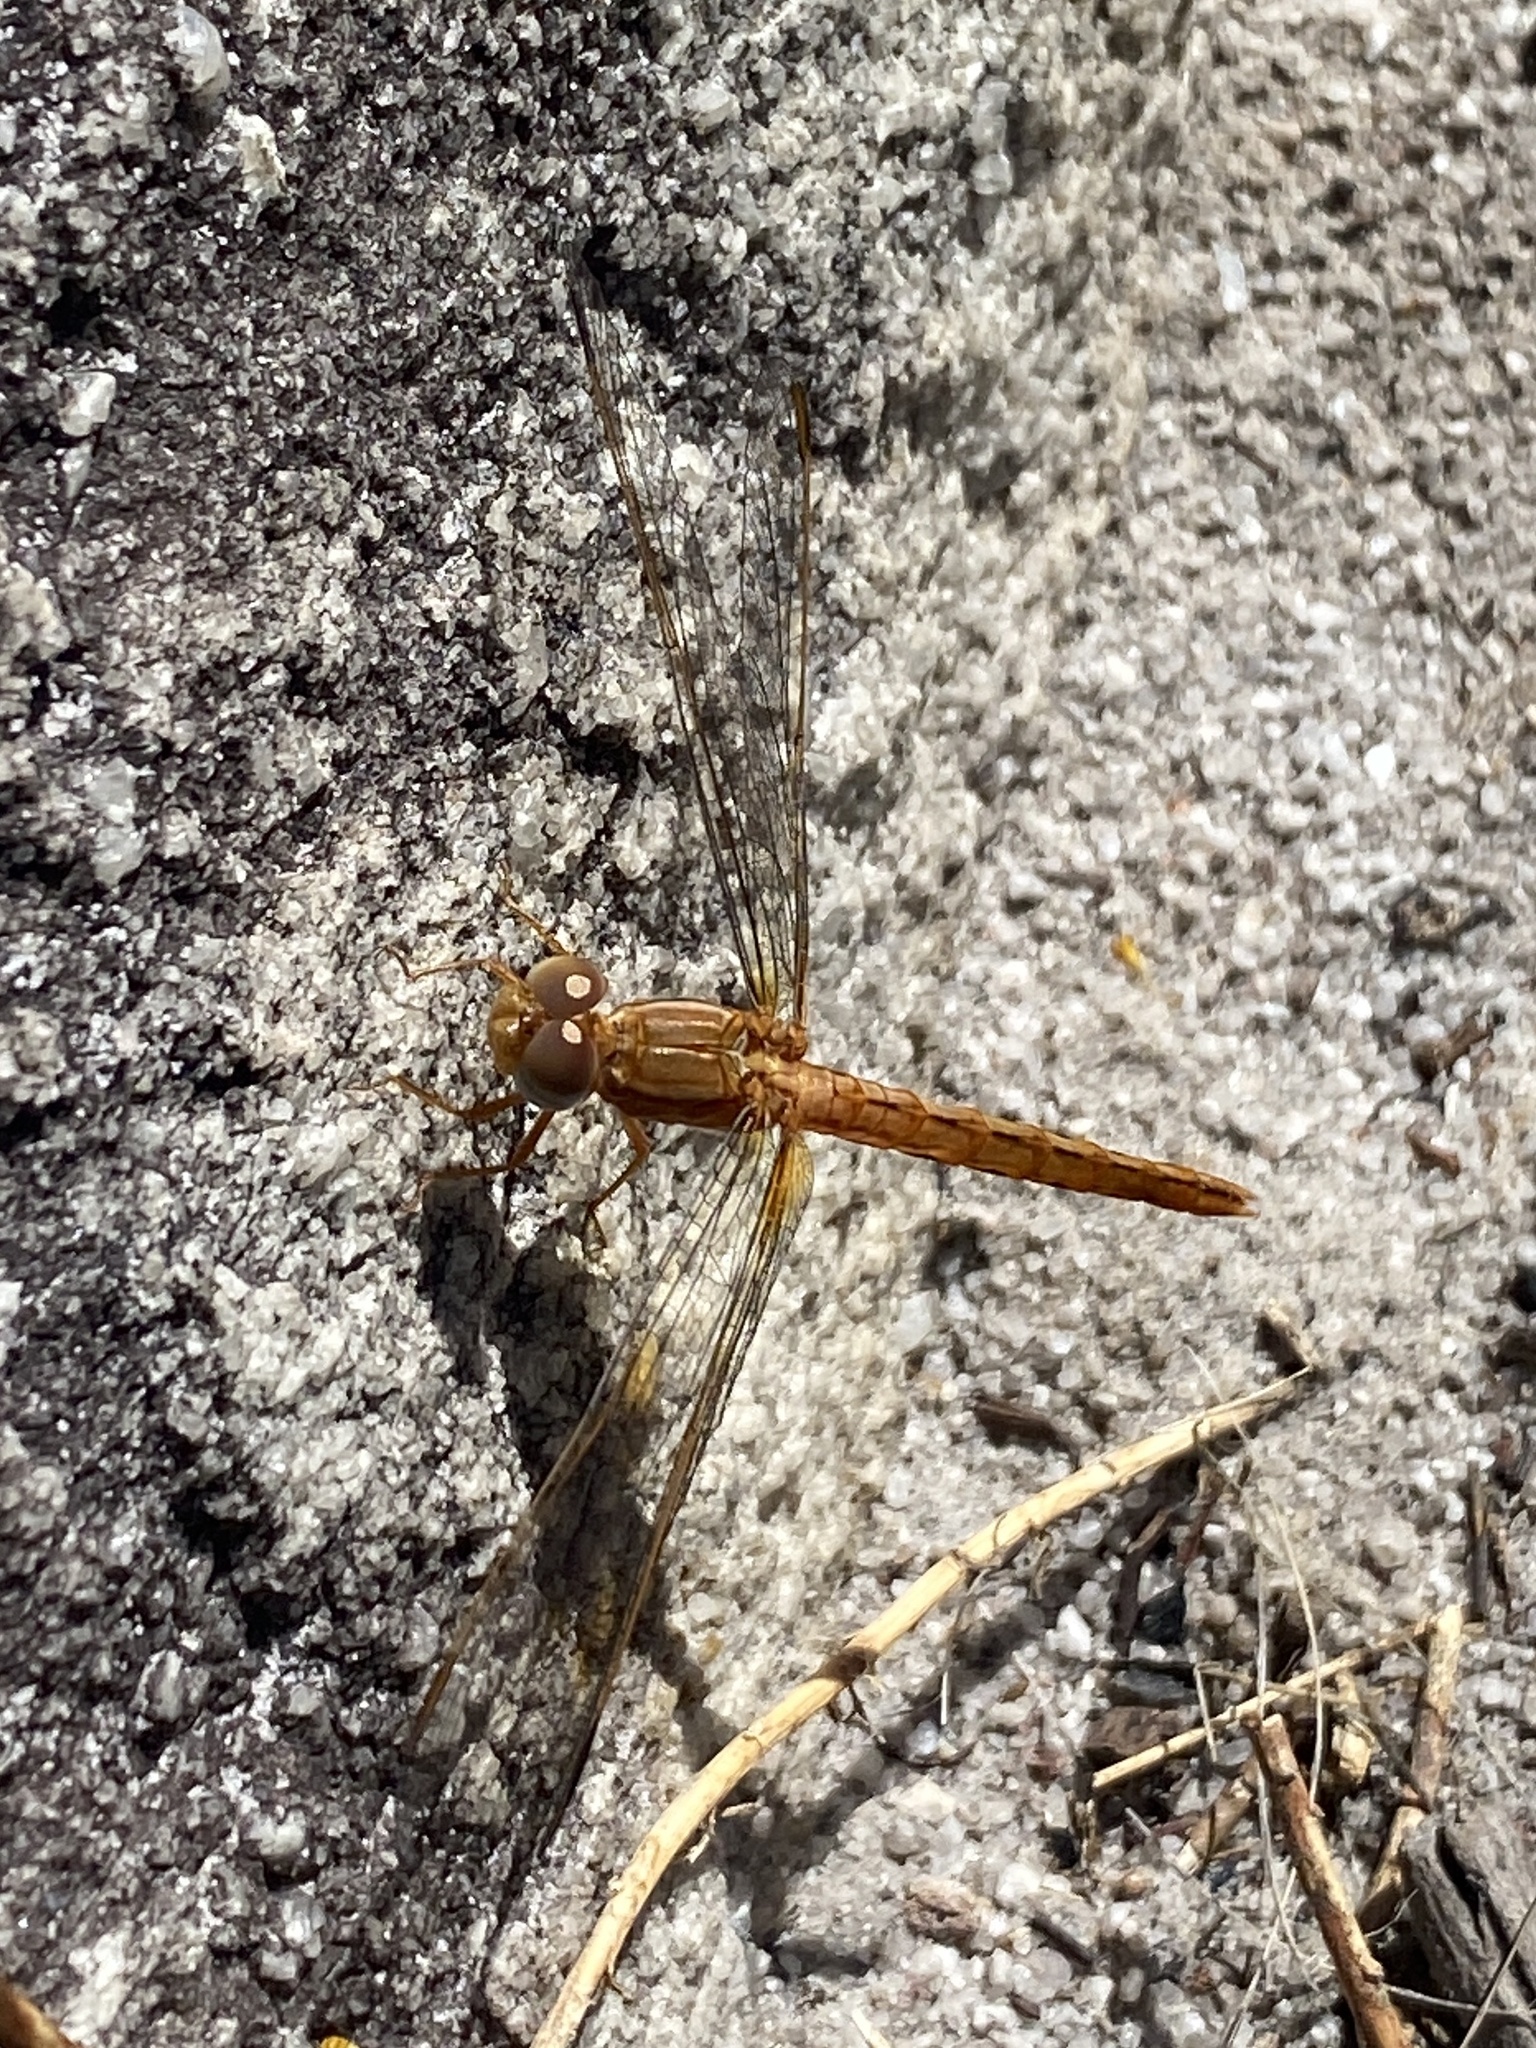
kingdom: Animalia
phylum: Arthropoda
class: Insecta
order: Odonata
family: Libellulidae
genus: Crocothemis
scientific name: Crocothemis sanguinolenta
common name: Little scarlet
